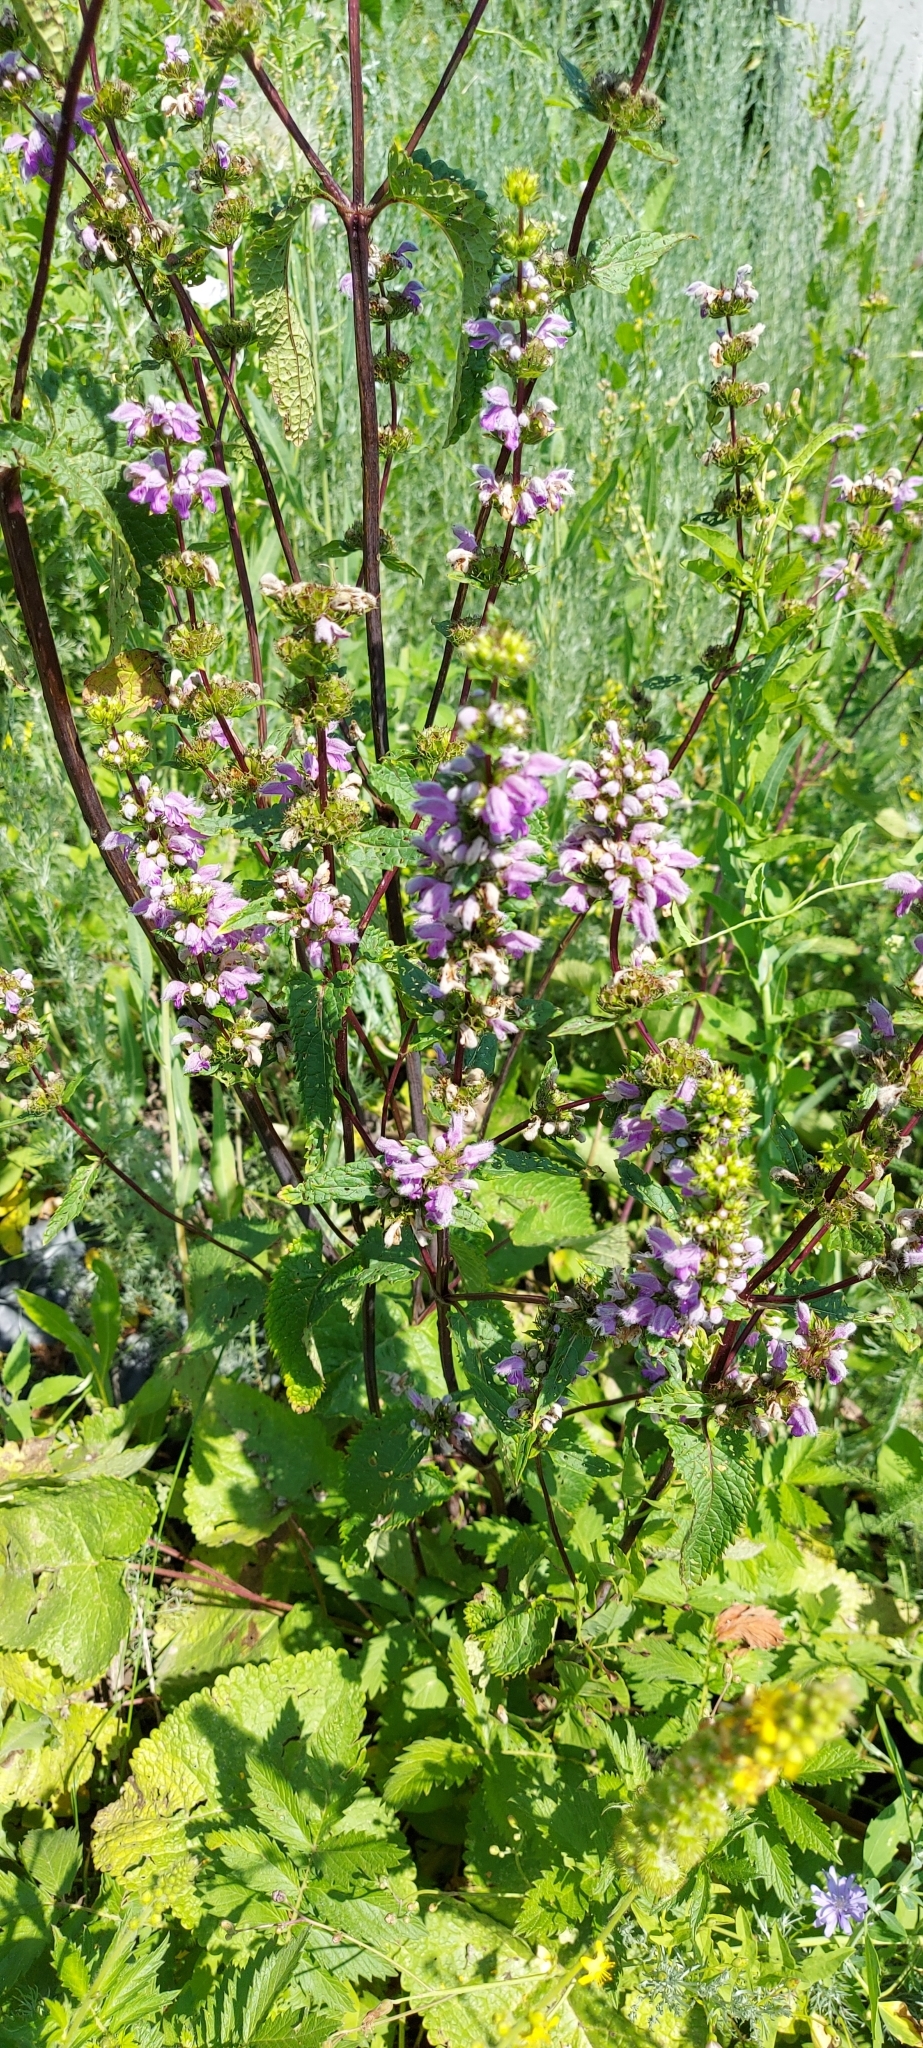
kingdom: Plantae
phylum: Tracheophyta
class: Magnoliopsida
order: Lamiales
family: Lamiaceae
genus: Phlomoides
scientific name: Phlomoides tuberosa
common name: Tuberous jerusalem sage
